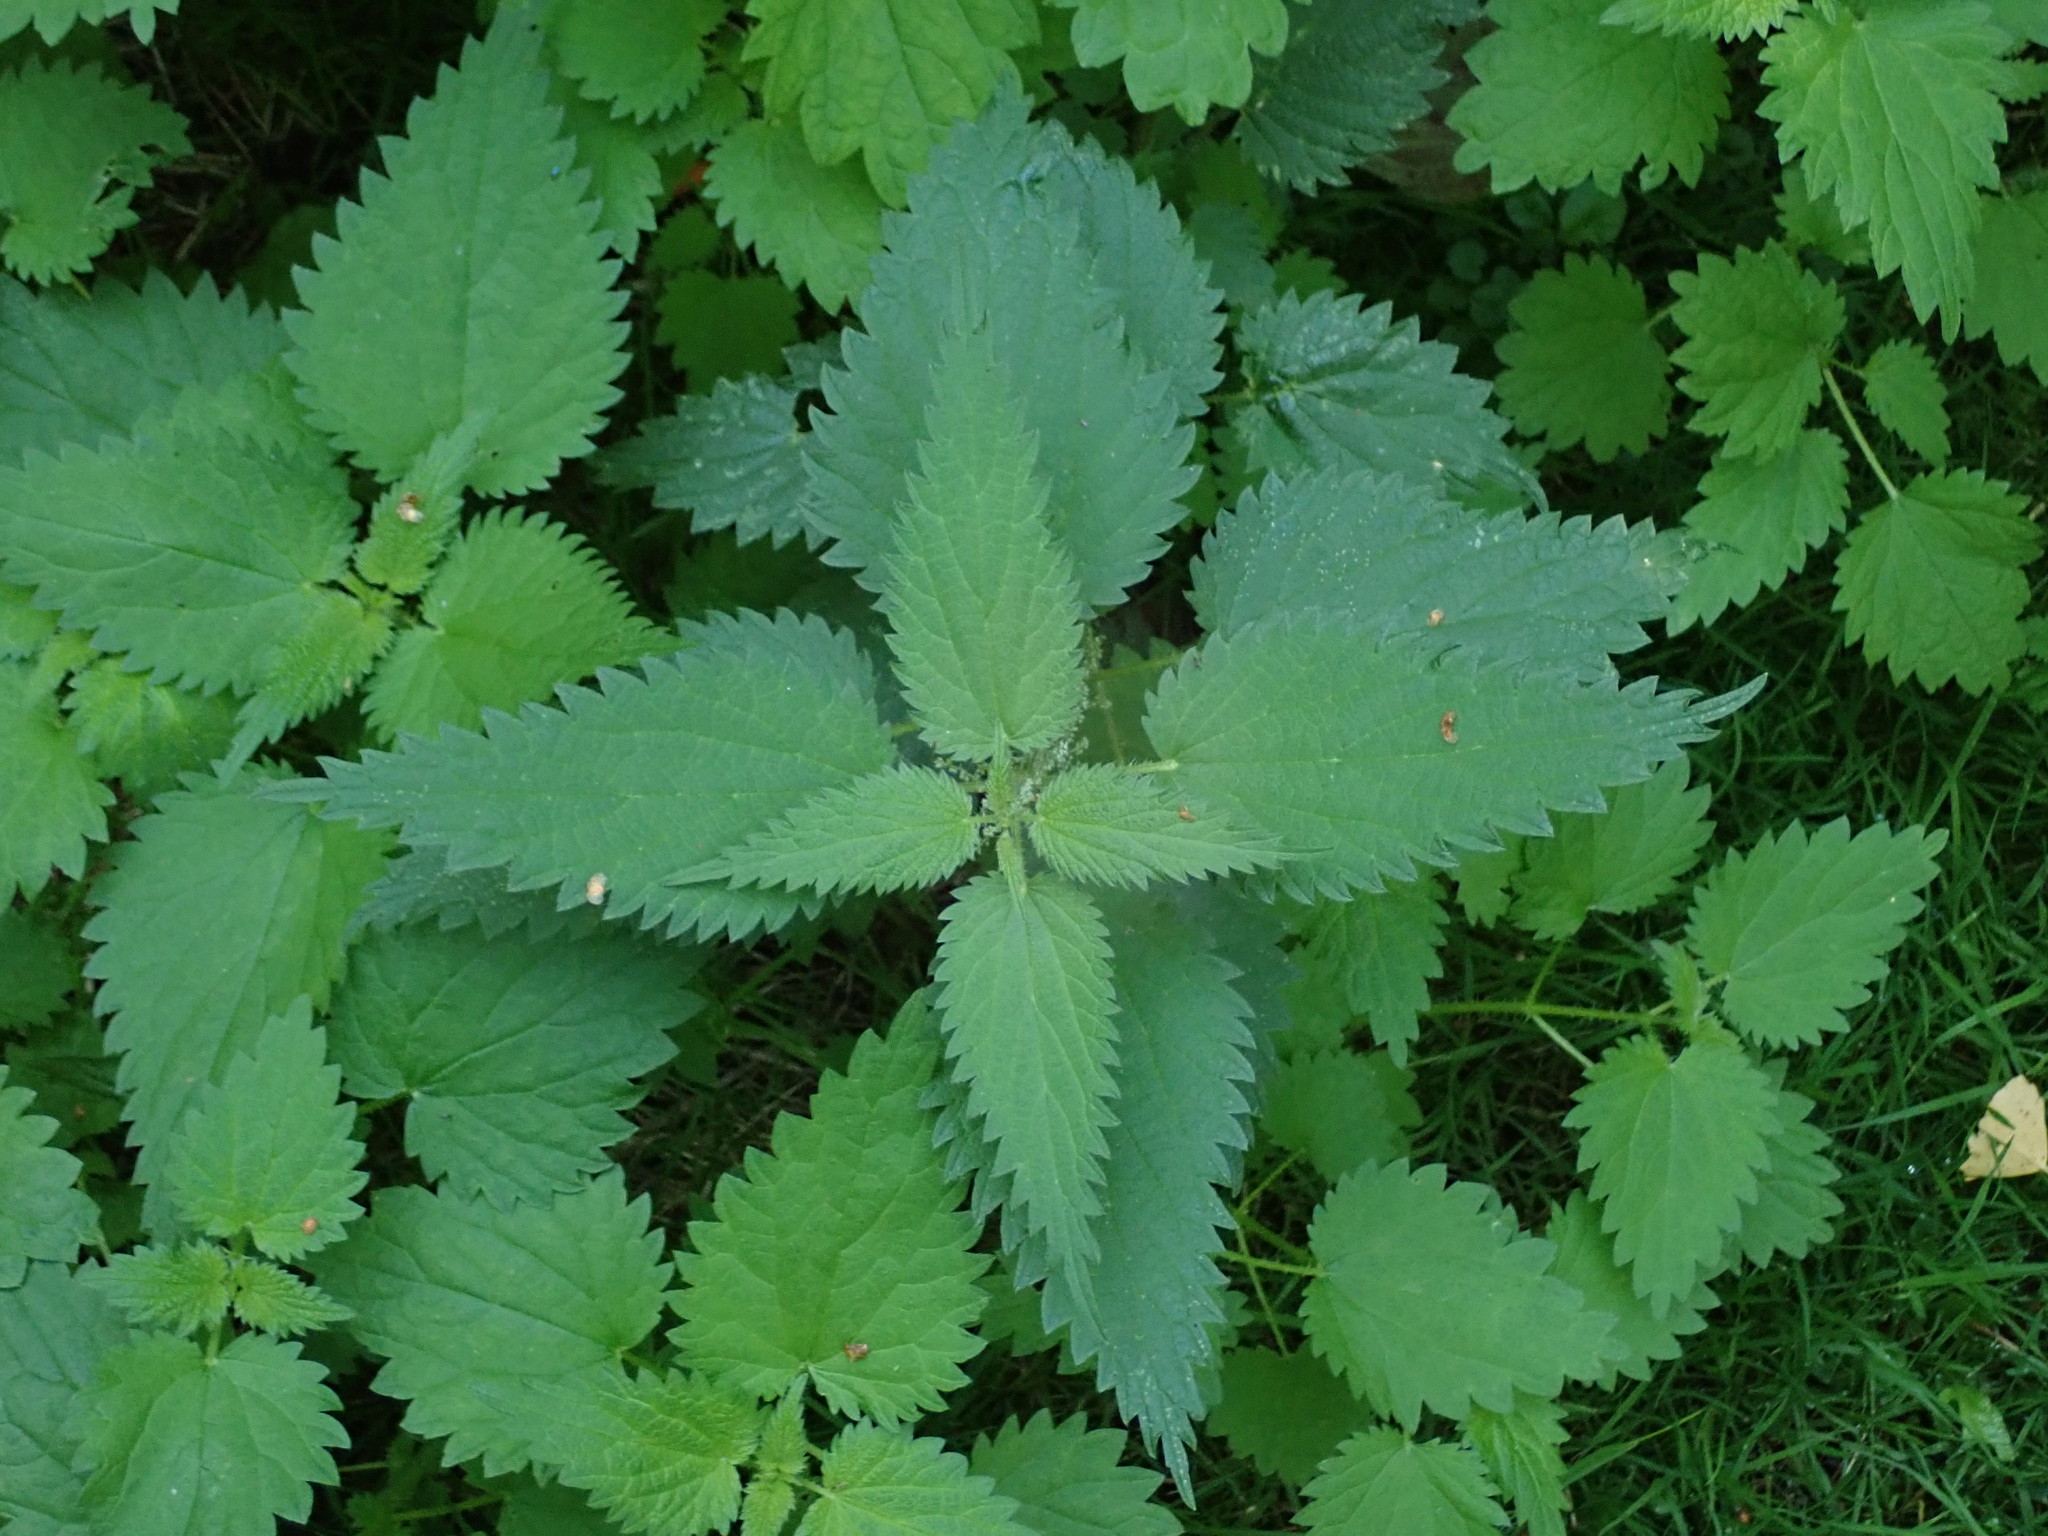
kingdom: Plantae
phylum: Tracheophyta
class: Magnoliopsida
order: Rosales
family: Urticaceae
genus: Urtica
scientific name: Urtica dioica
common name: Common nettle
